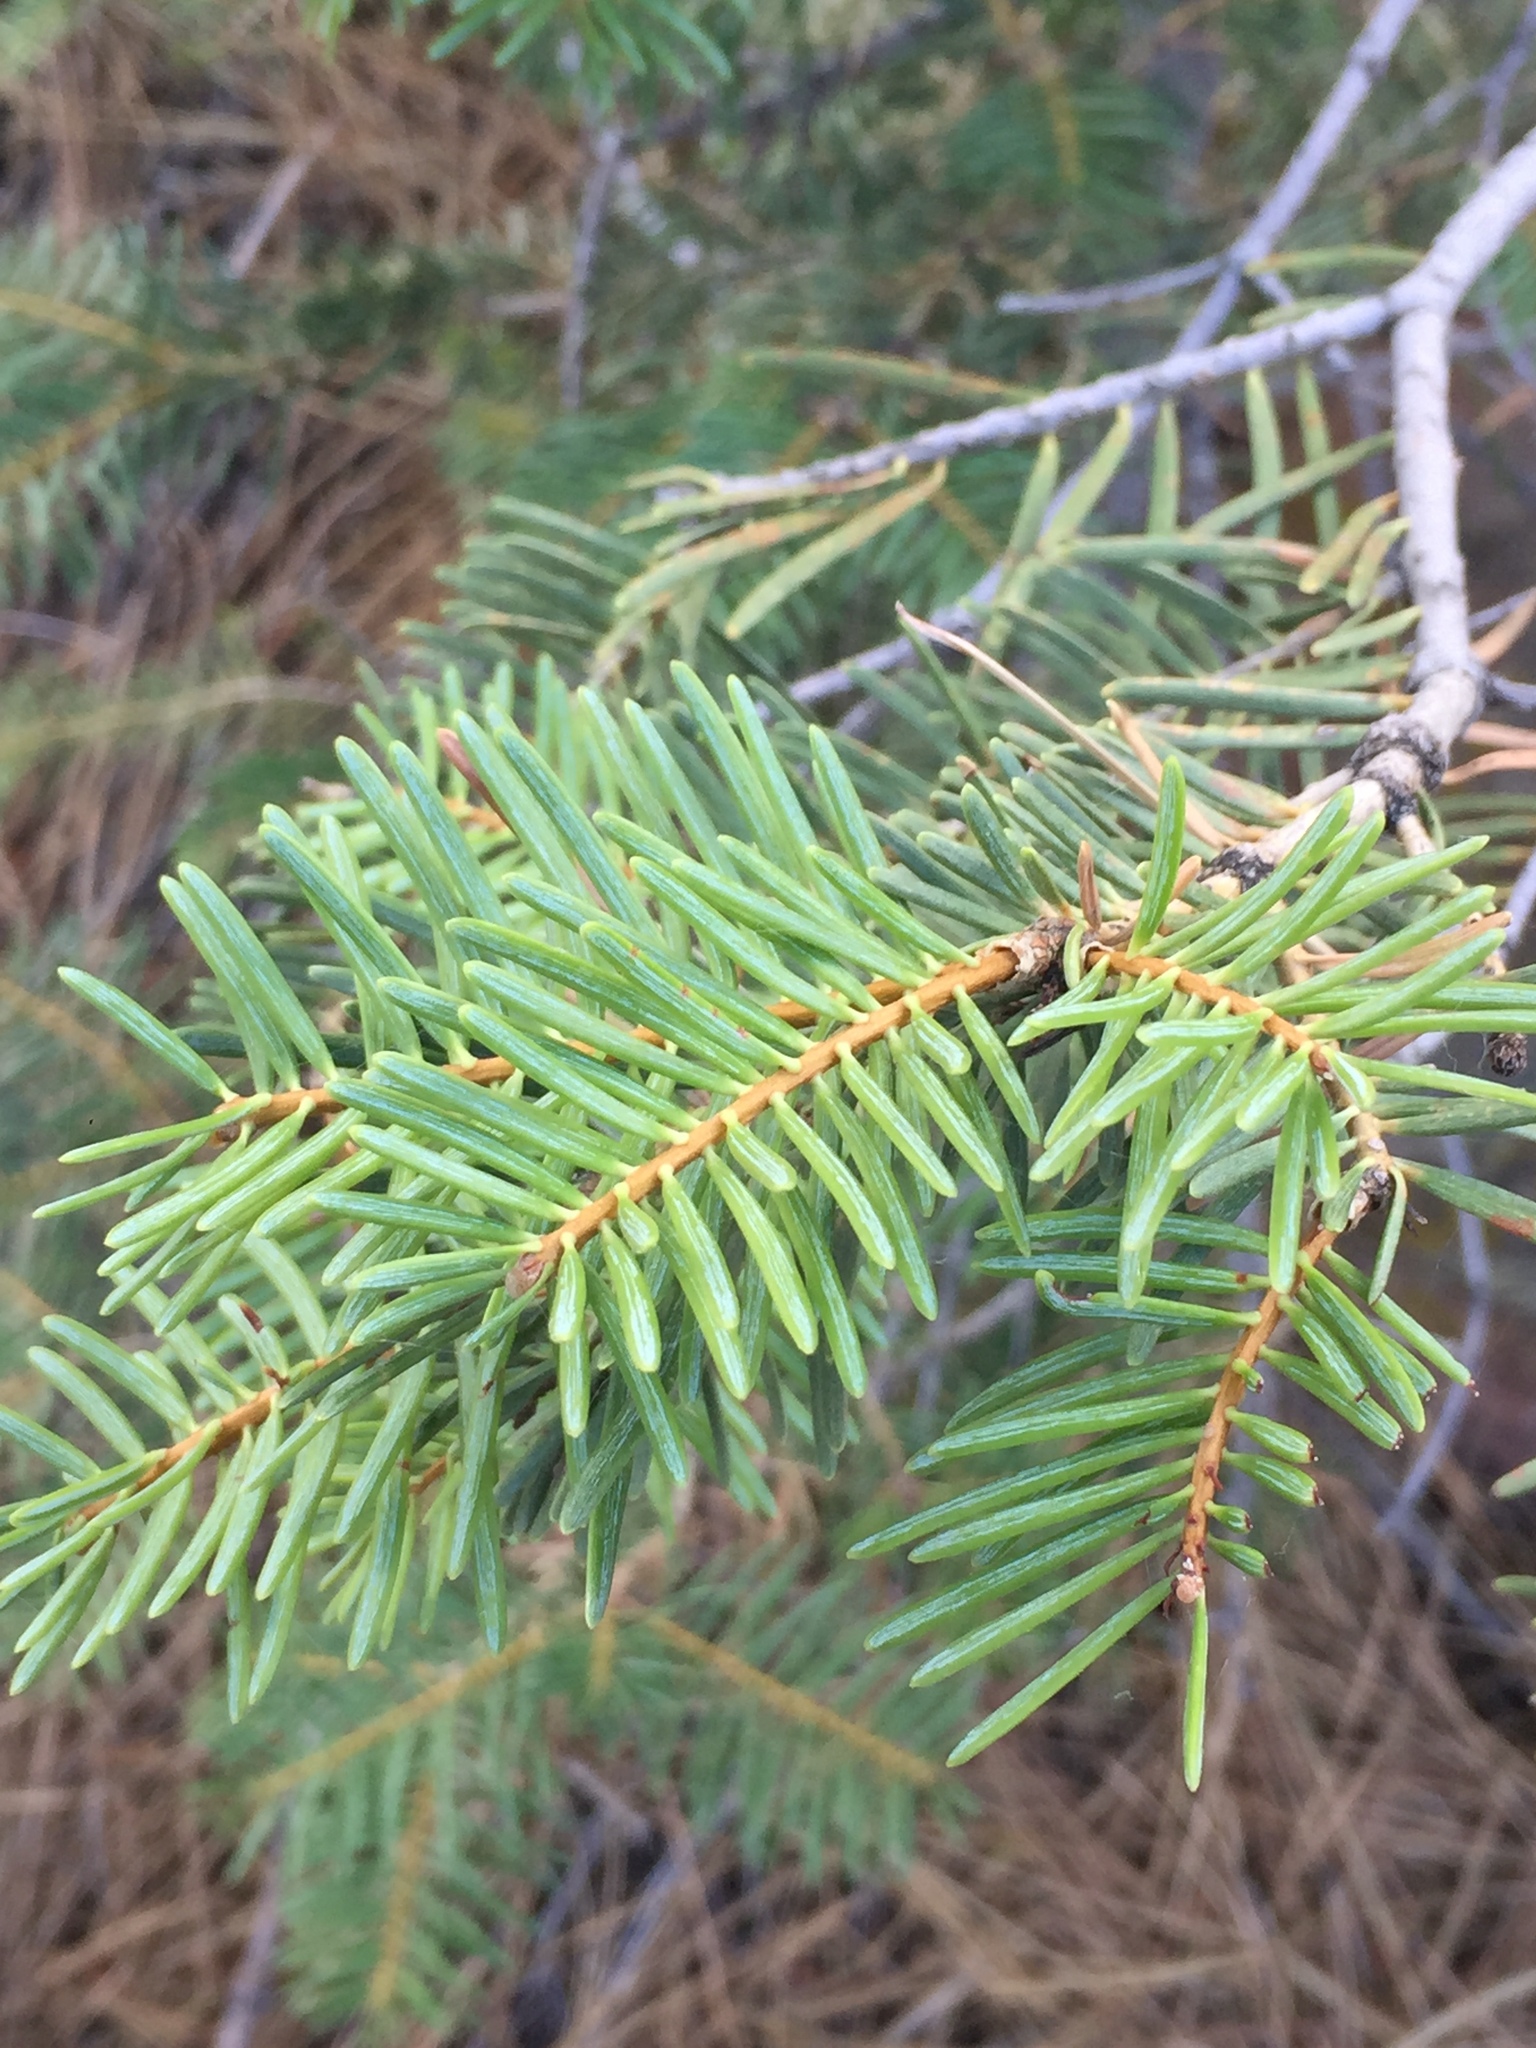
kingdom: Plantae
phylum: Tracheophyta
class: Pinopsida
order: Pinales
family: Pinaceae
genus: Abies
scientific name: Abies concolor
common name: Colorado fir
